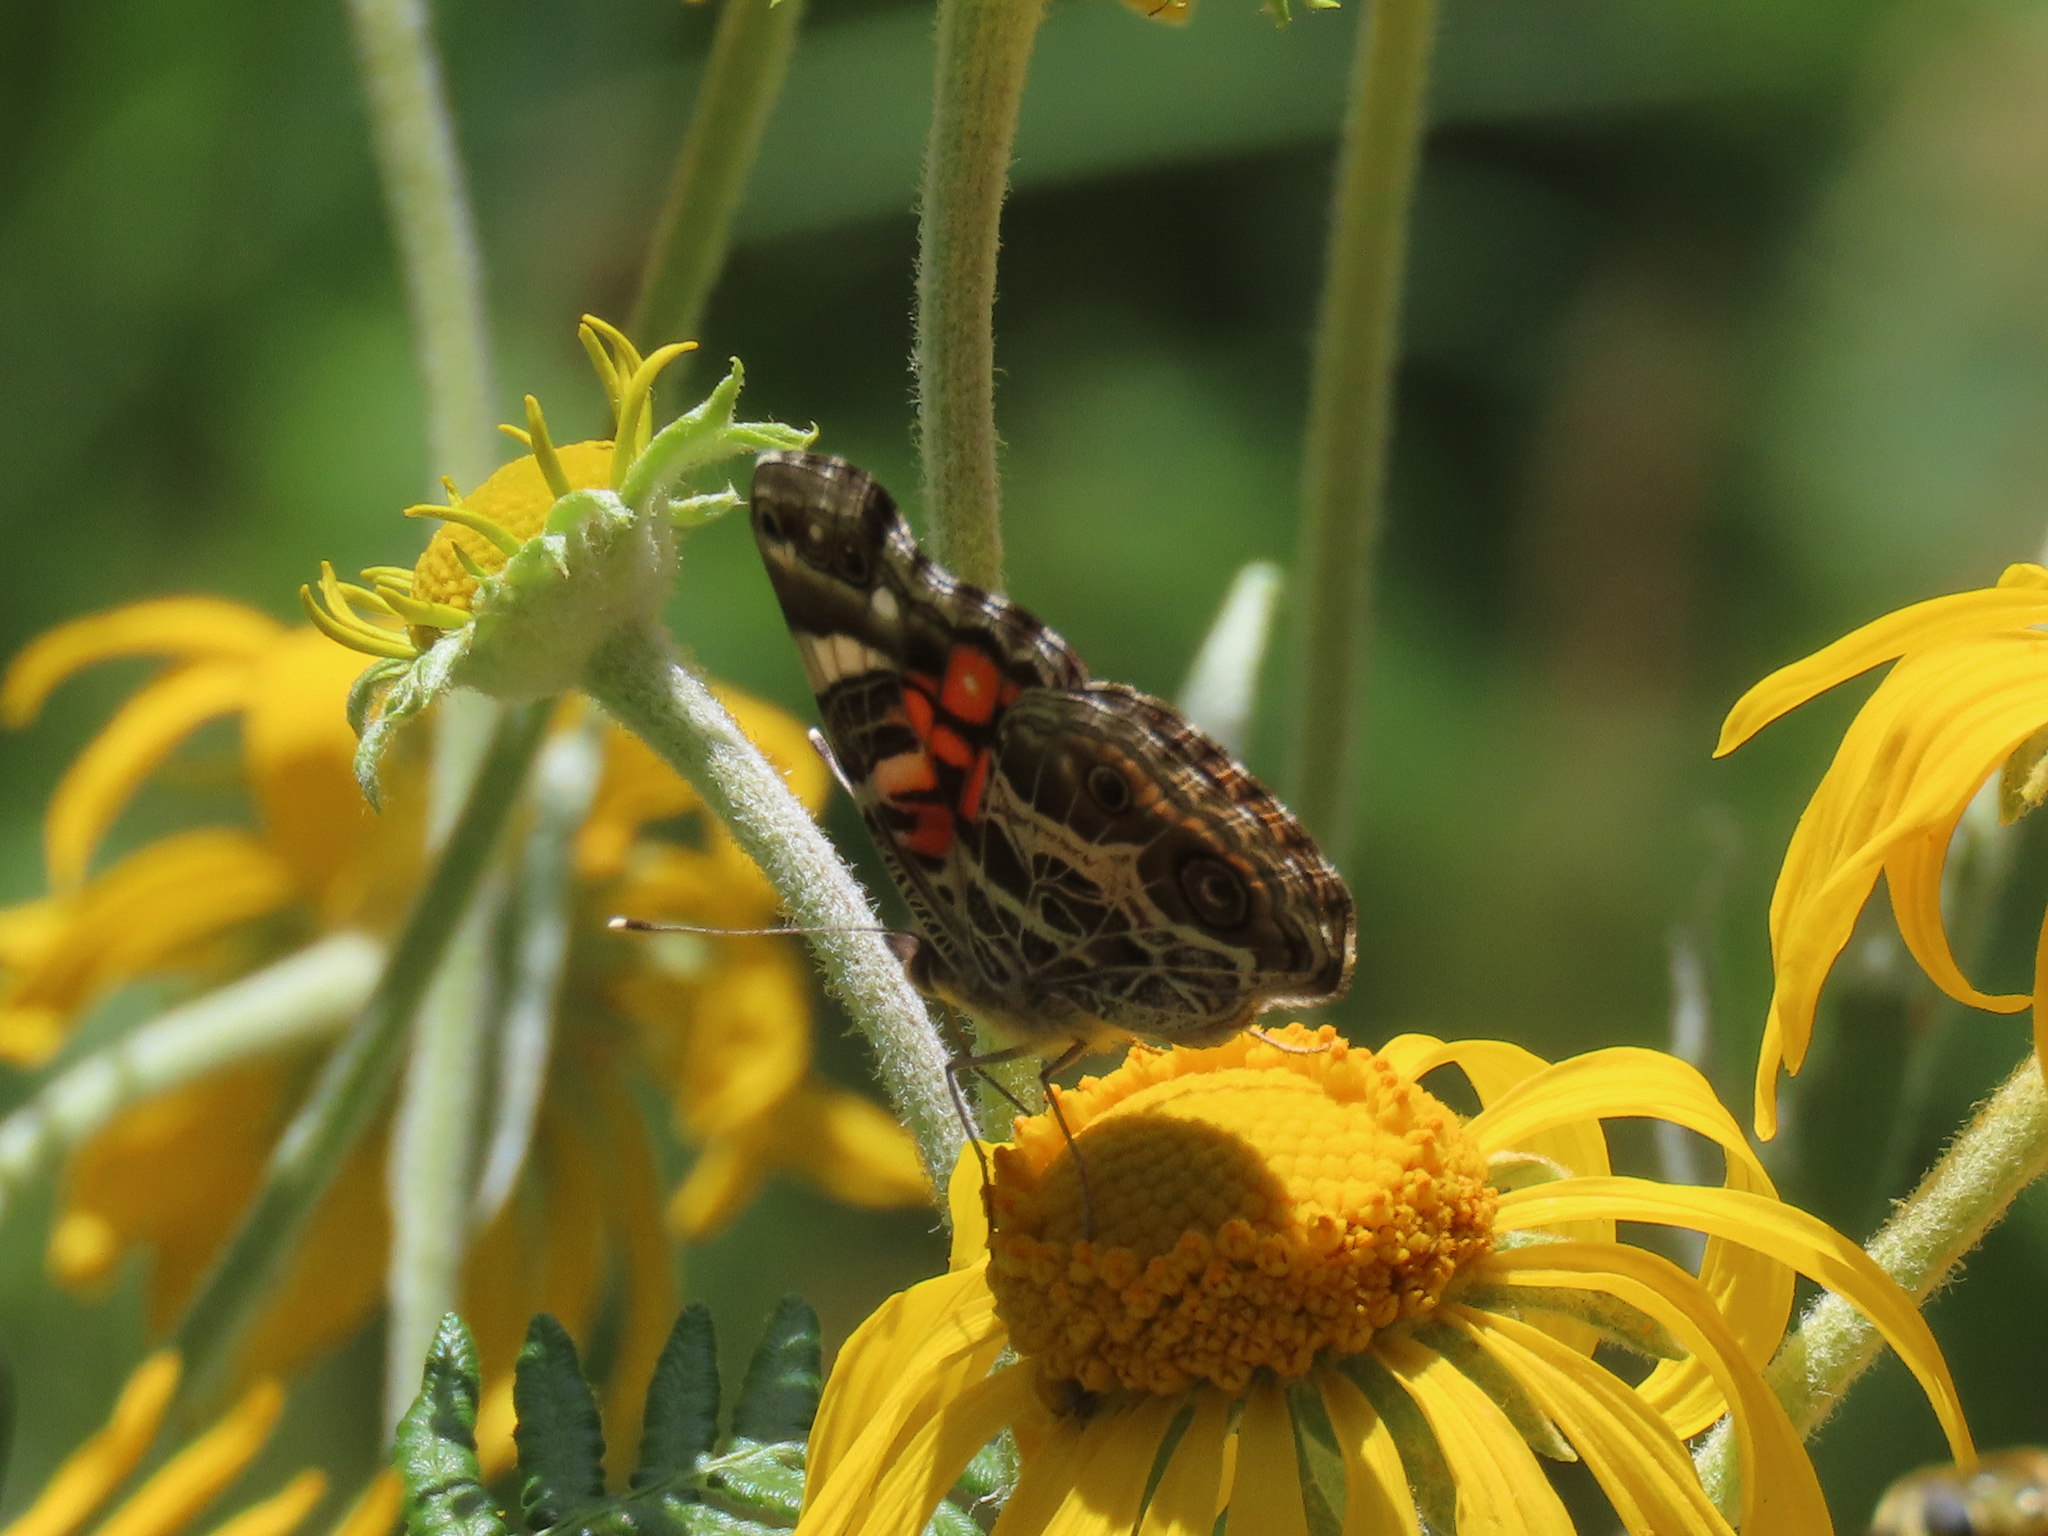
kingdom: Animalia
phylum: Arthropoda
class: Insecta
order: Lepidoptera
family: Nymphalidae
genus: Vanessa
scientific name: Vanessa virginiensis
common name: American lady
